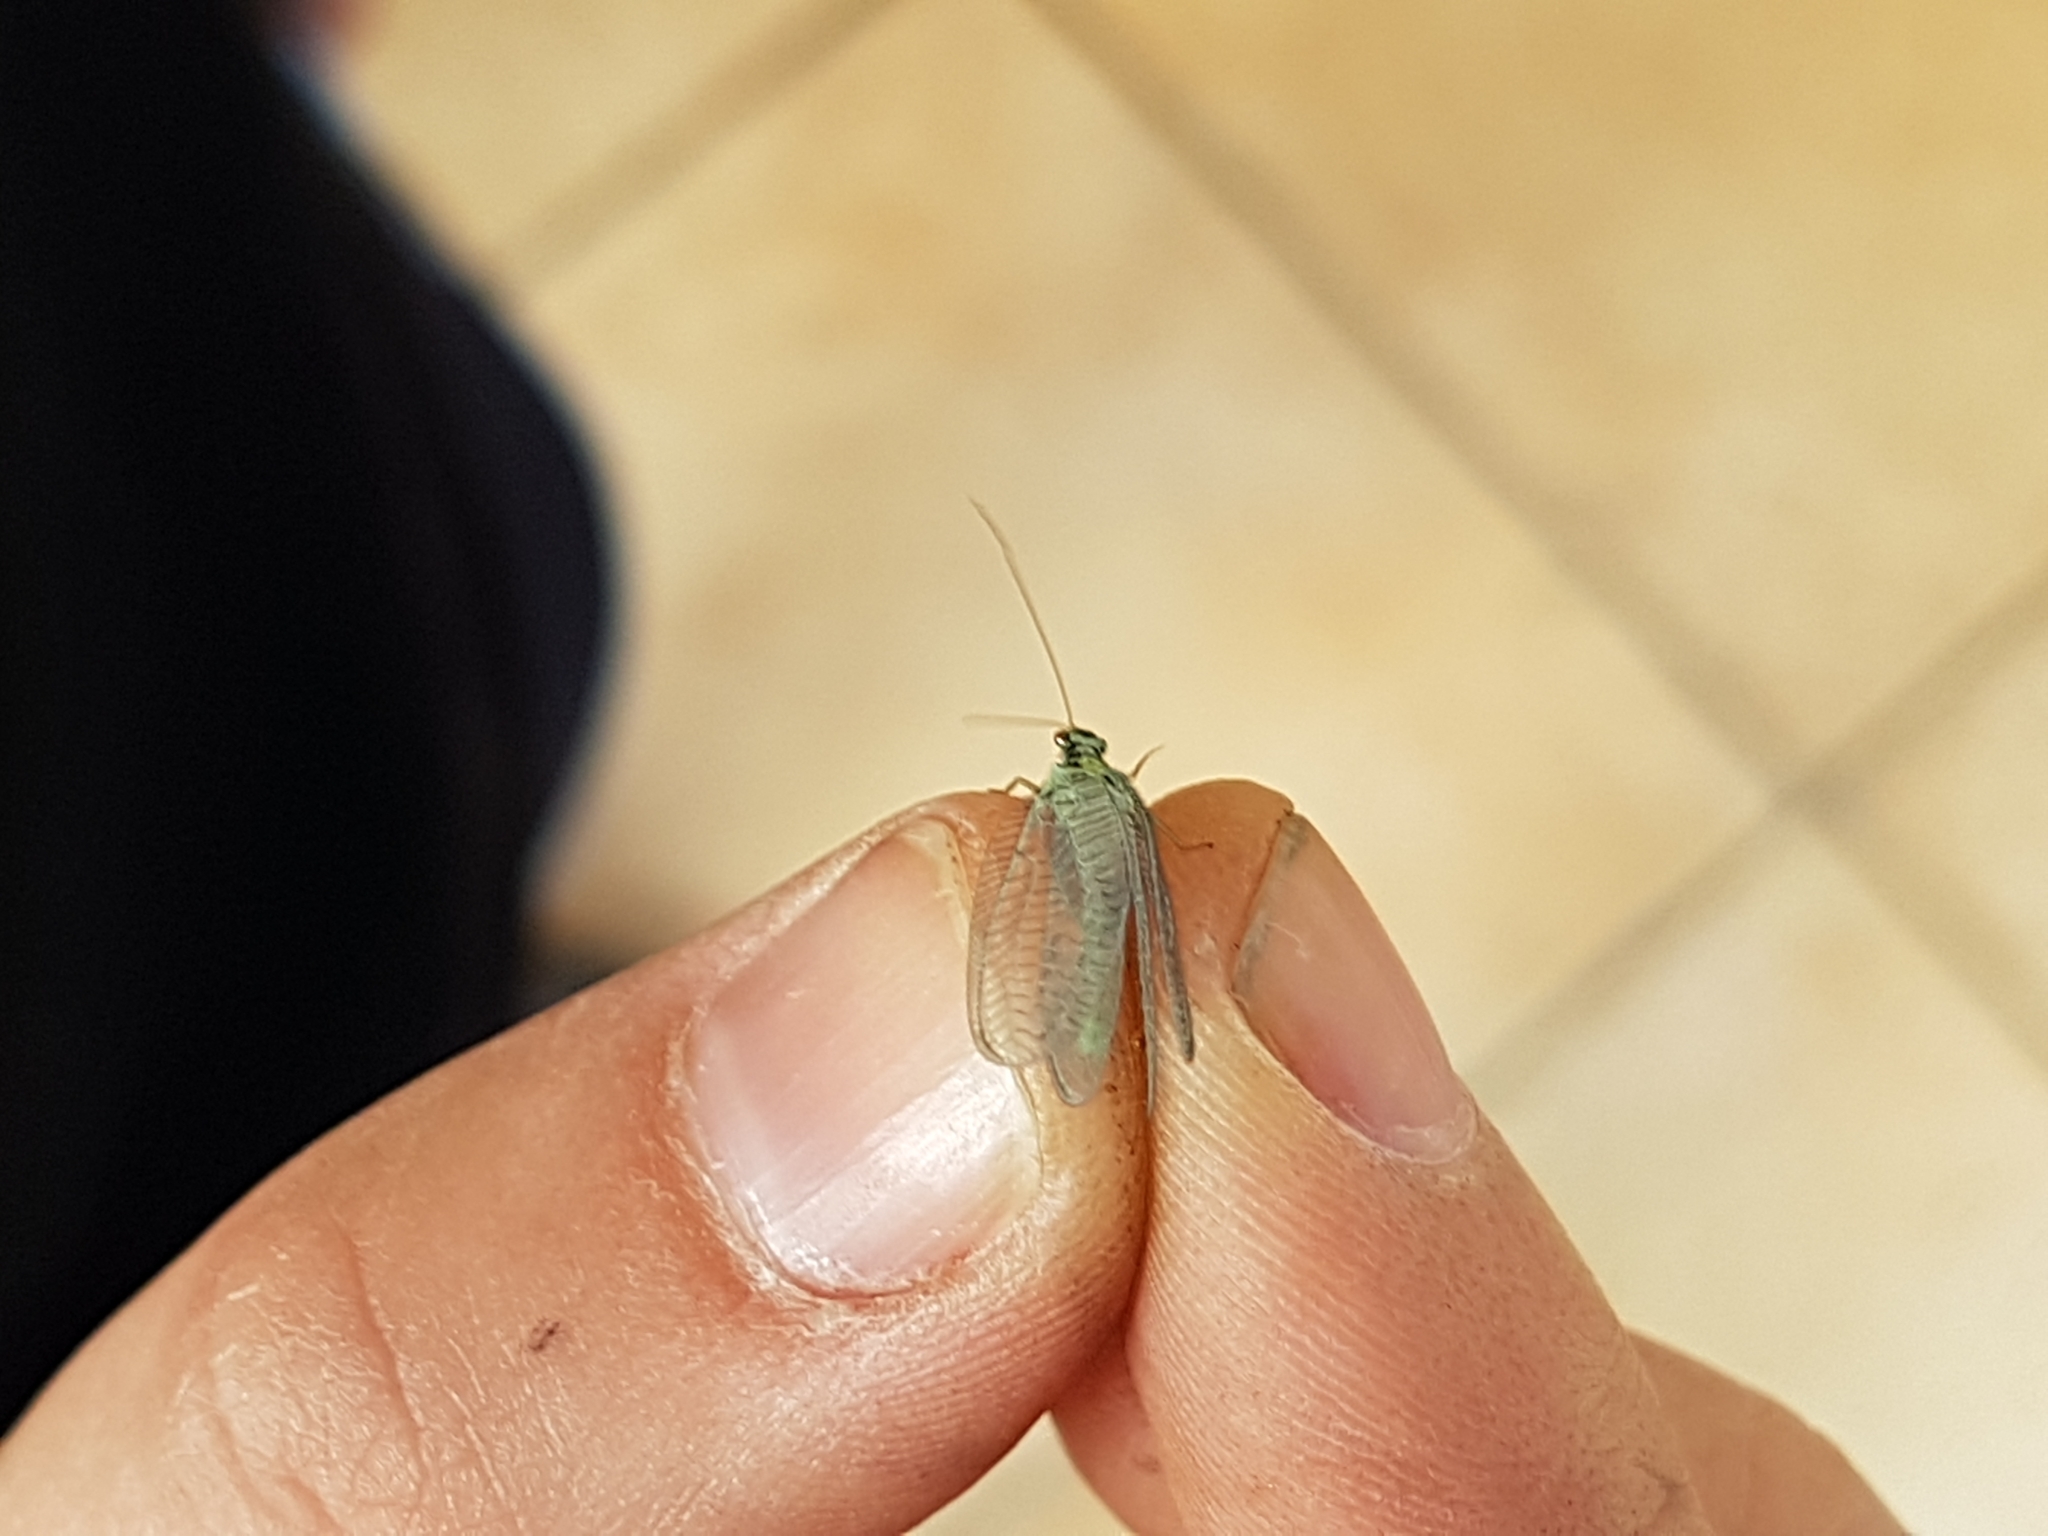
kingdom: Animalia
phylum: Arthropoda
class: Insecta
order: Neuroptera
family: Chrysopidae
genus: Chrysopa
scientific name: Chrysopa perla
